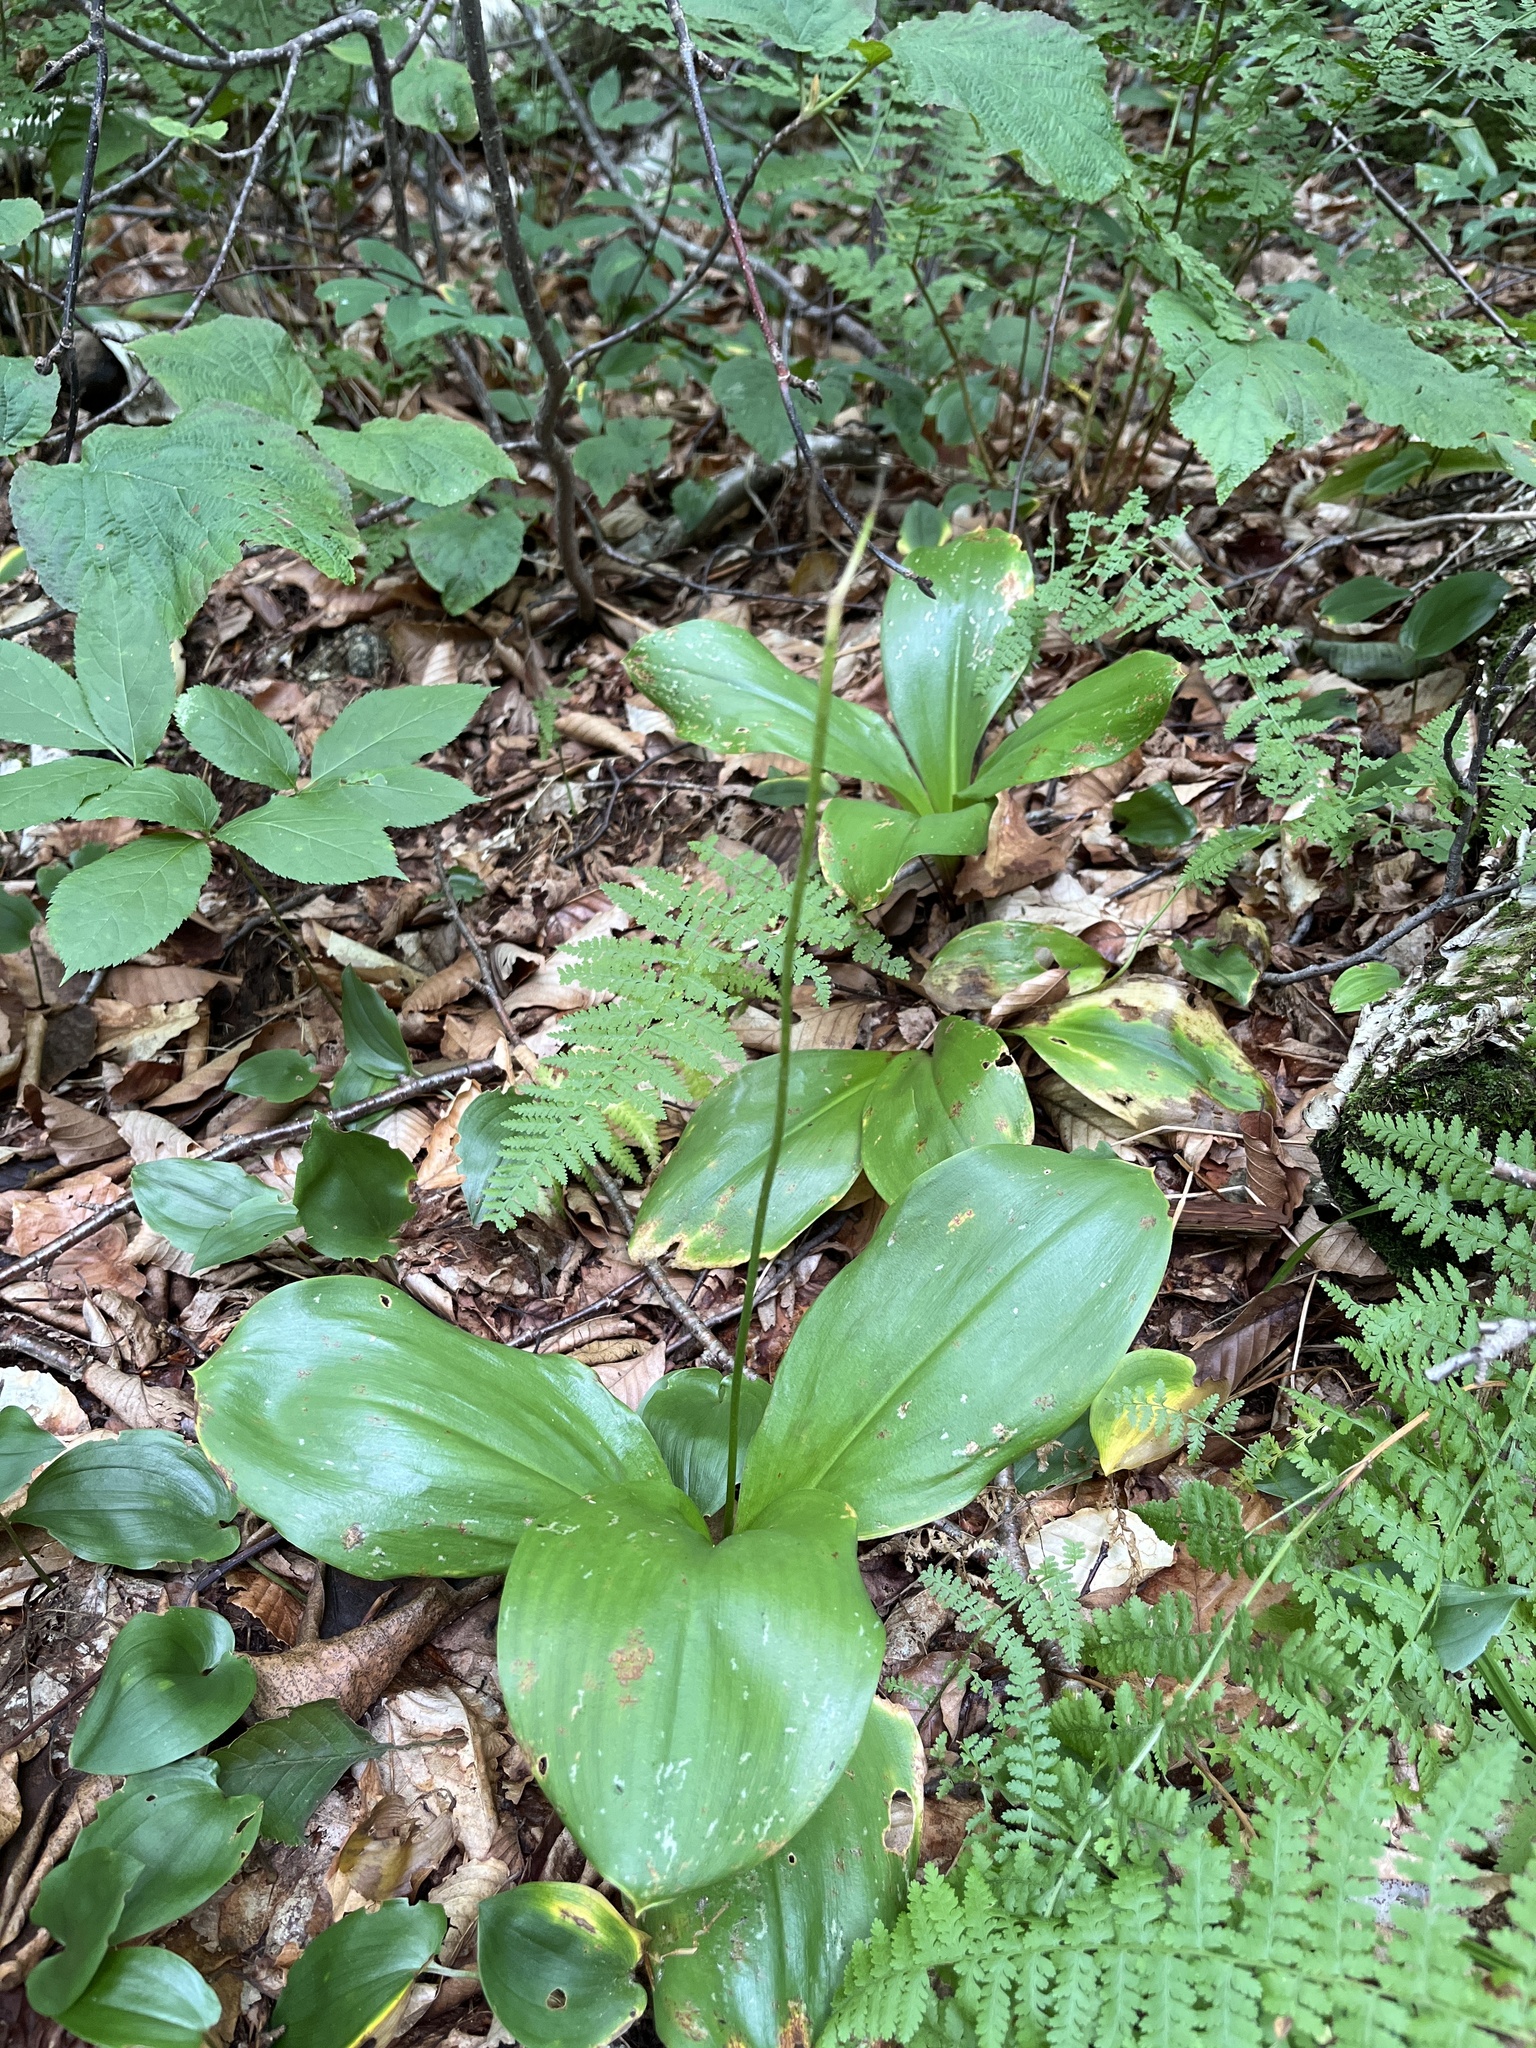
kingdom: Plantae
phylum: Tracheophyta
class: Liliopsida
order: Liliales
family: Liliaceae
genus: Clintonia
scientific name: Clintonia borealis
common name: Yellow clintonia
